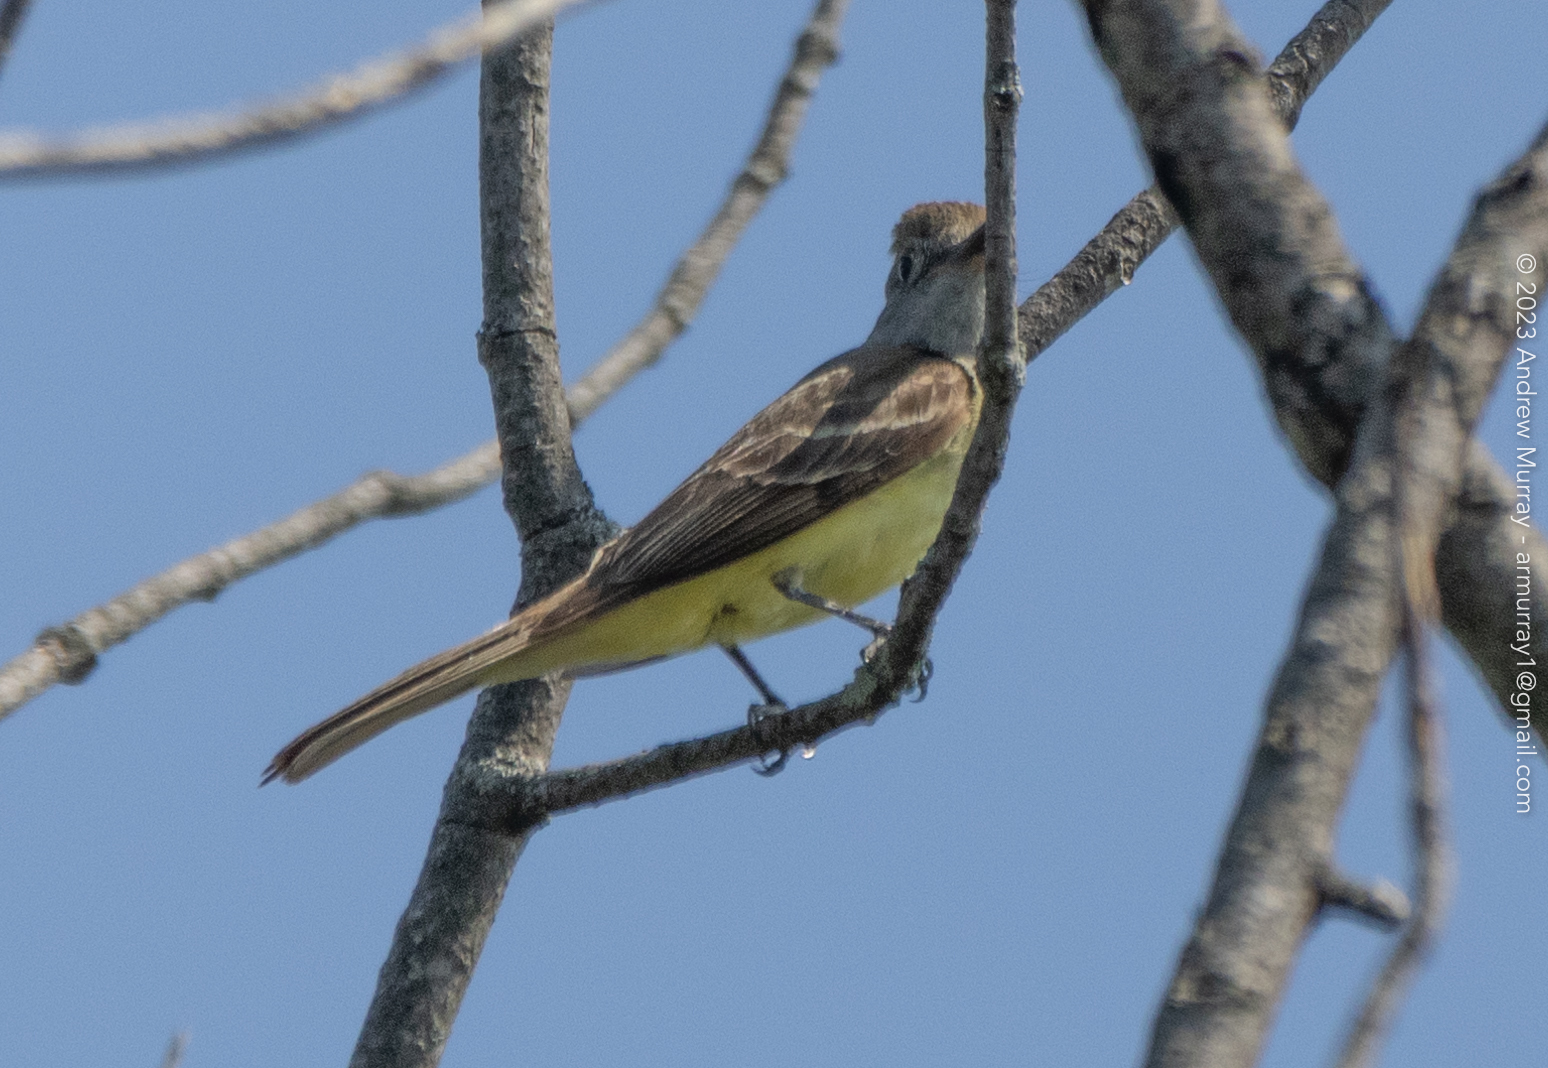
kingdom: Animalia
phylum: Chordata
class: Aves
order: Passeriformes
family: Tyrannidae
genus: Myiarchus
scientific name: Myiarchus crinitus
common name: Great crested flycatcher
